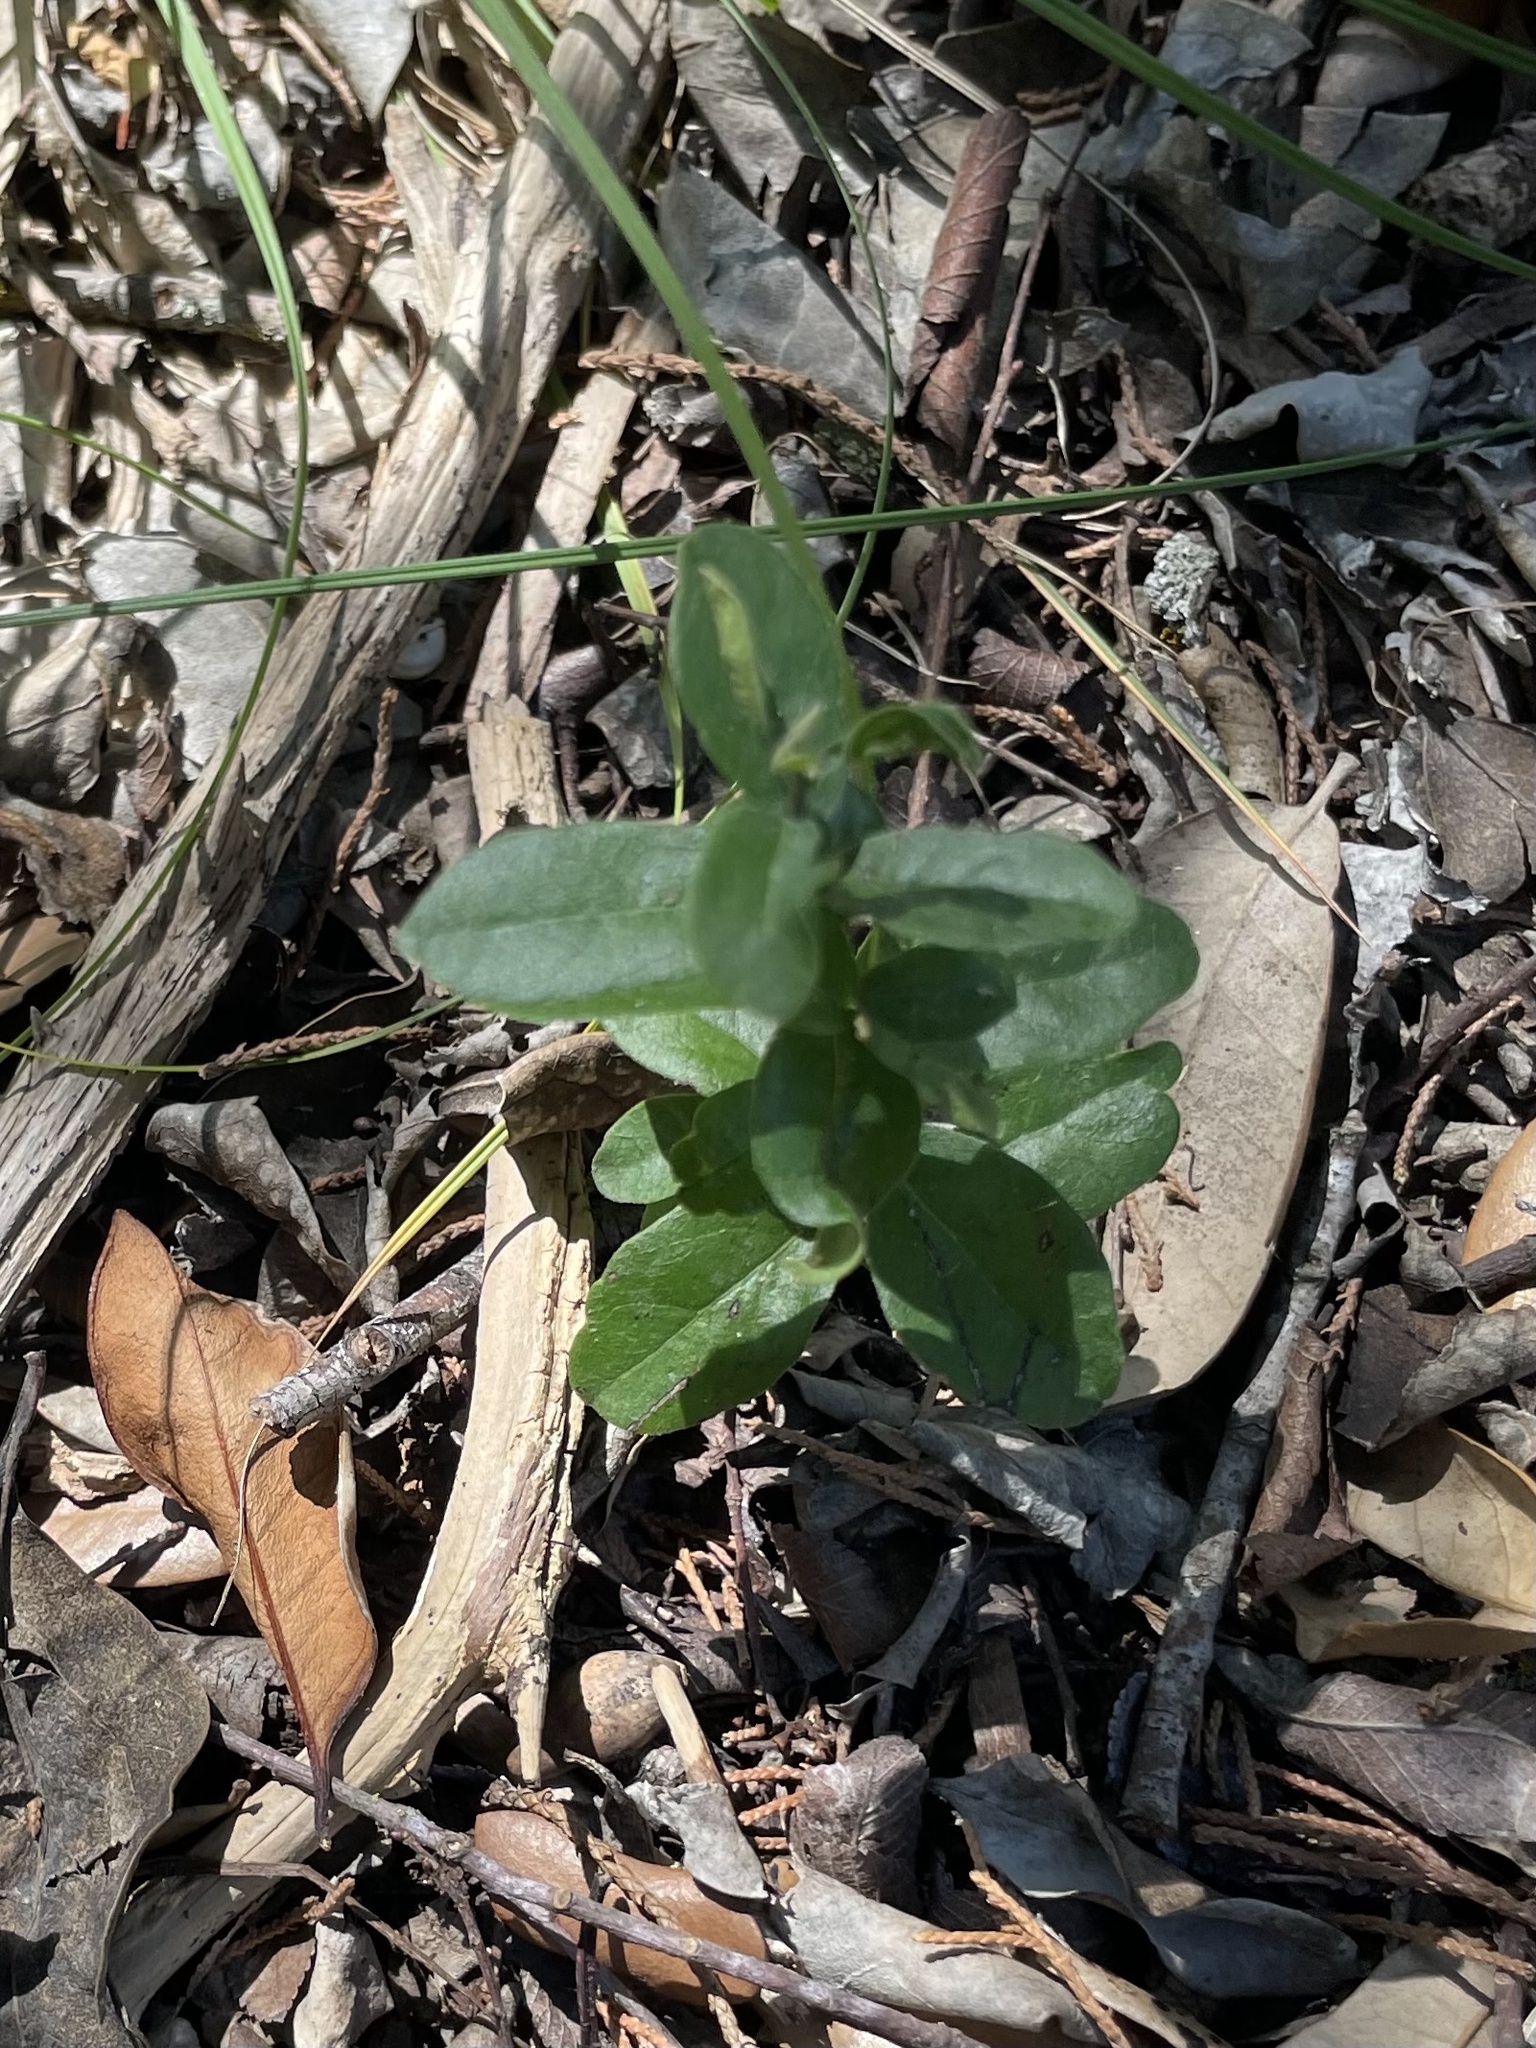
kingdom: Plantae
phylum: Tracheophyta
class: Magnoliopsida
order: Ericales
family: Ebenaceae
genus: Diospyros
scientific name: Diospyros texana
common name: Texas persimmon
